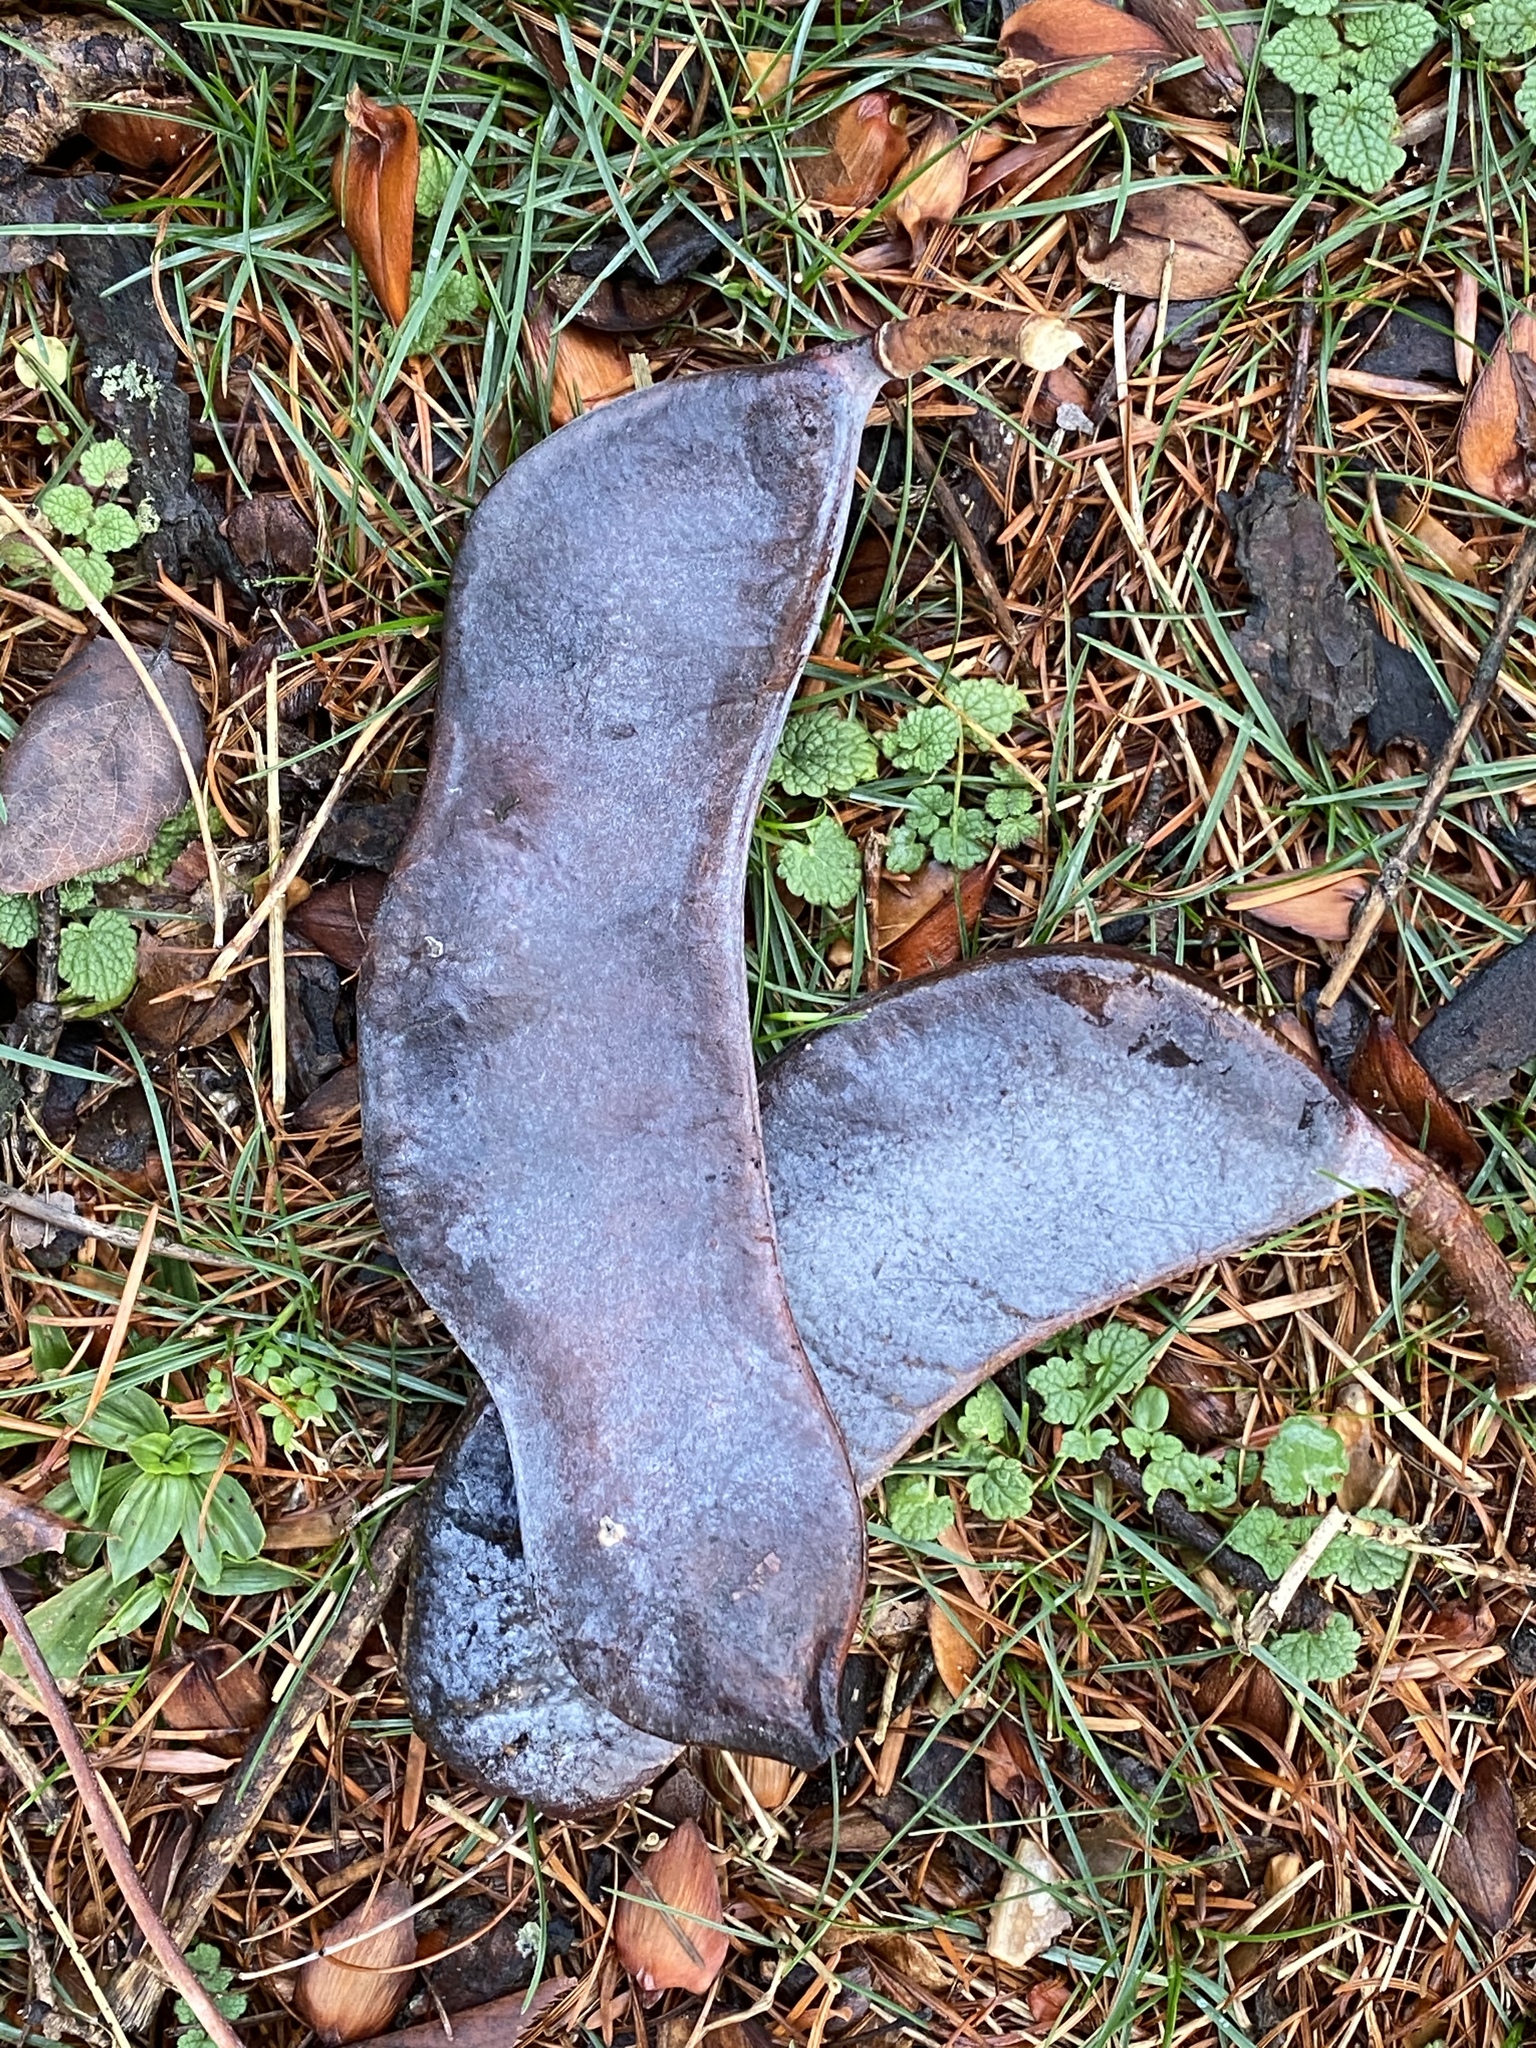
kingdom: Plantae
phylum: Tracheophyta
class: Magnoliopsida
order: Fabales
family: Fabaceae
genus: Gymnocladus
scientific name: Gymnocladus dioicus
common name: Kentucky coffee-tree
